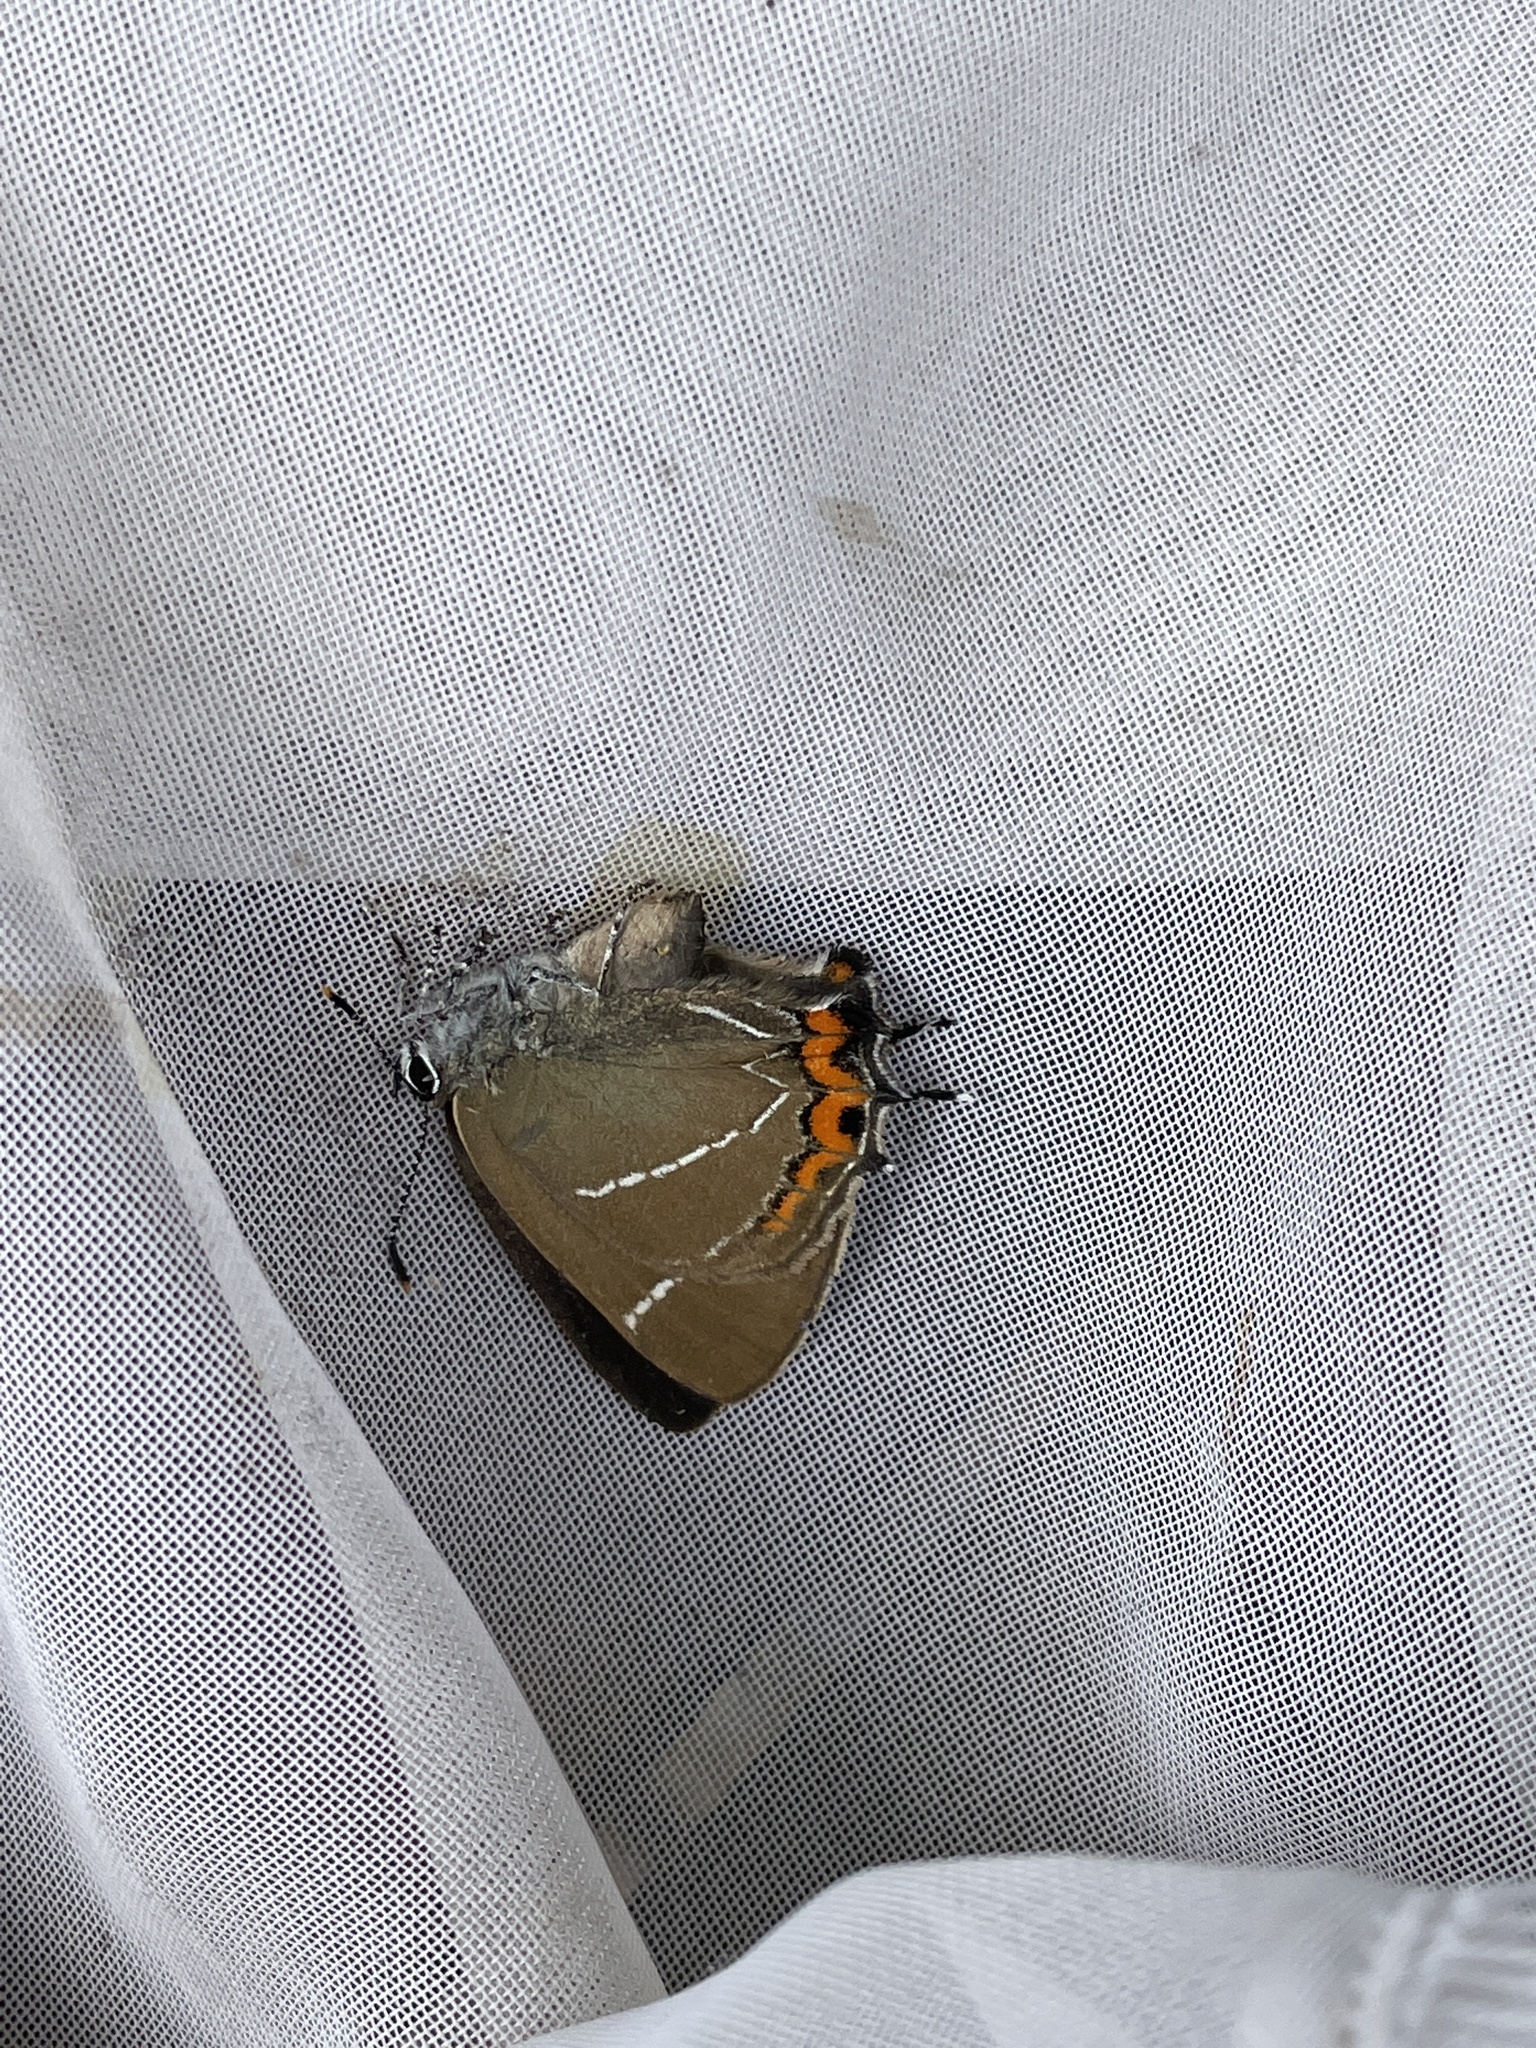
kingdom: Animalia
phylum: Arthropoda
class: Insecta
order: Lepidoptera
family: Lycaenidae
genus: Satyrium
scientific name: Satyrium w-album
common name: White-letter hairstreak
